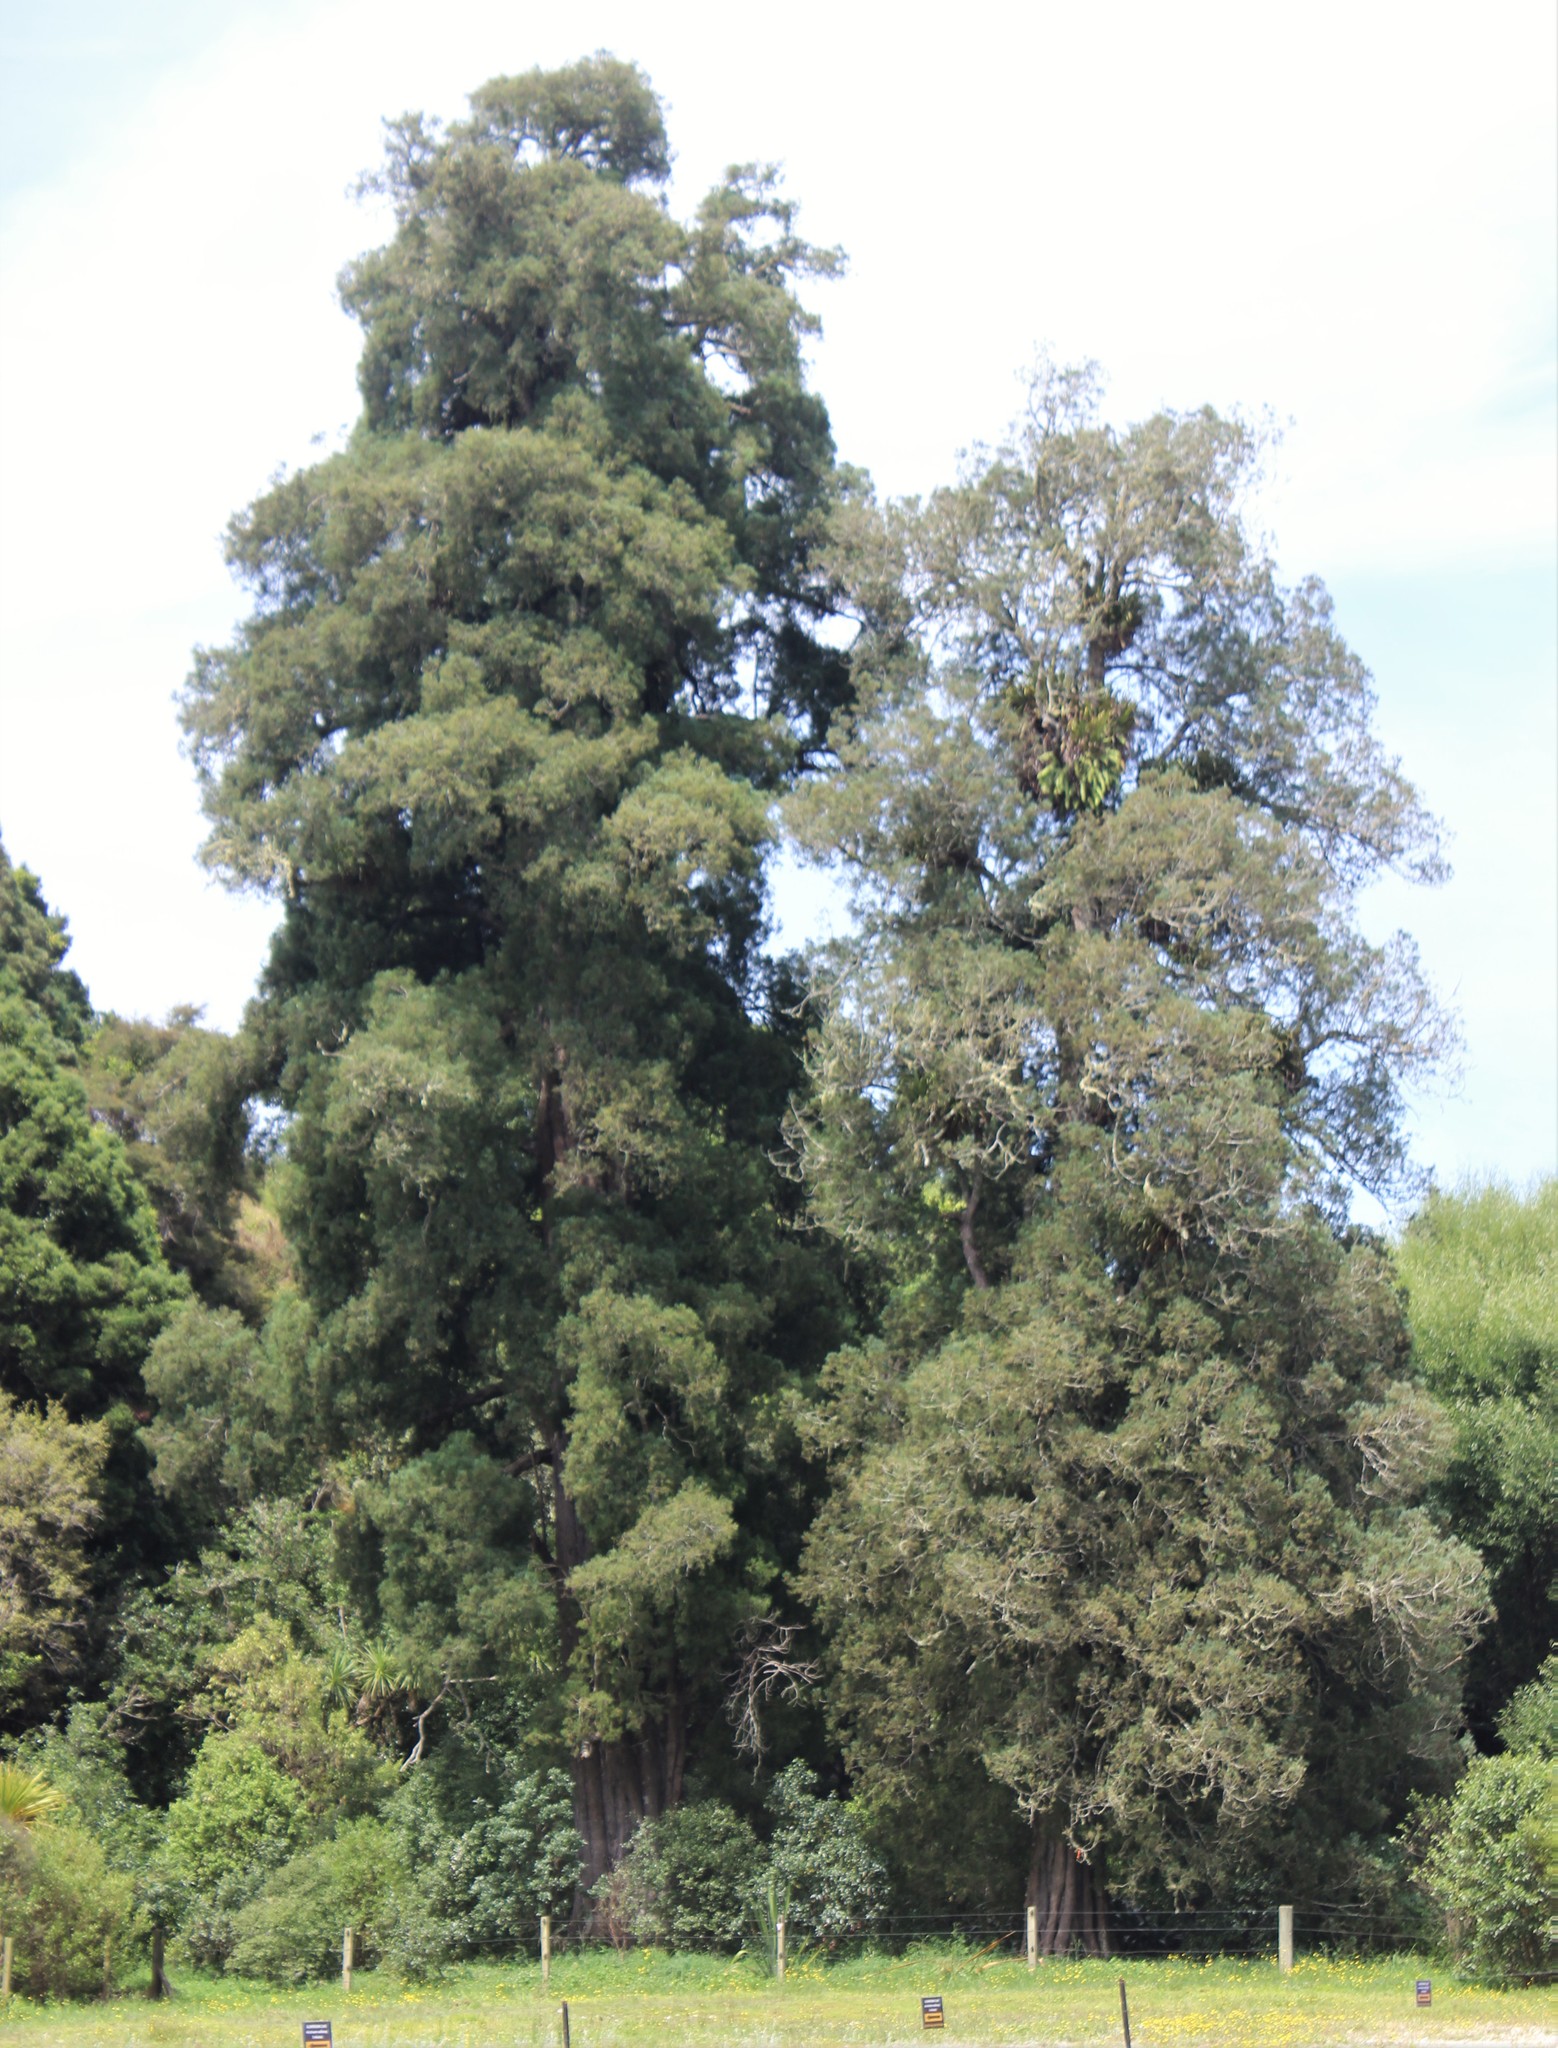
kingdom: Plantae
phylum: Tracheophyta
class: Pinopsida
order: Pinales
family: Podocarpaceae
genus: Dacrycarpus
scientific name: Dacrycarpus dacrydioides
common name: White pine
